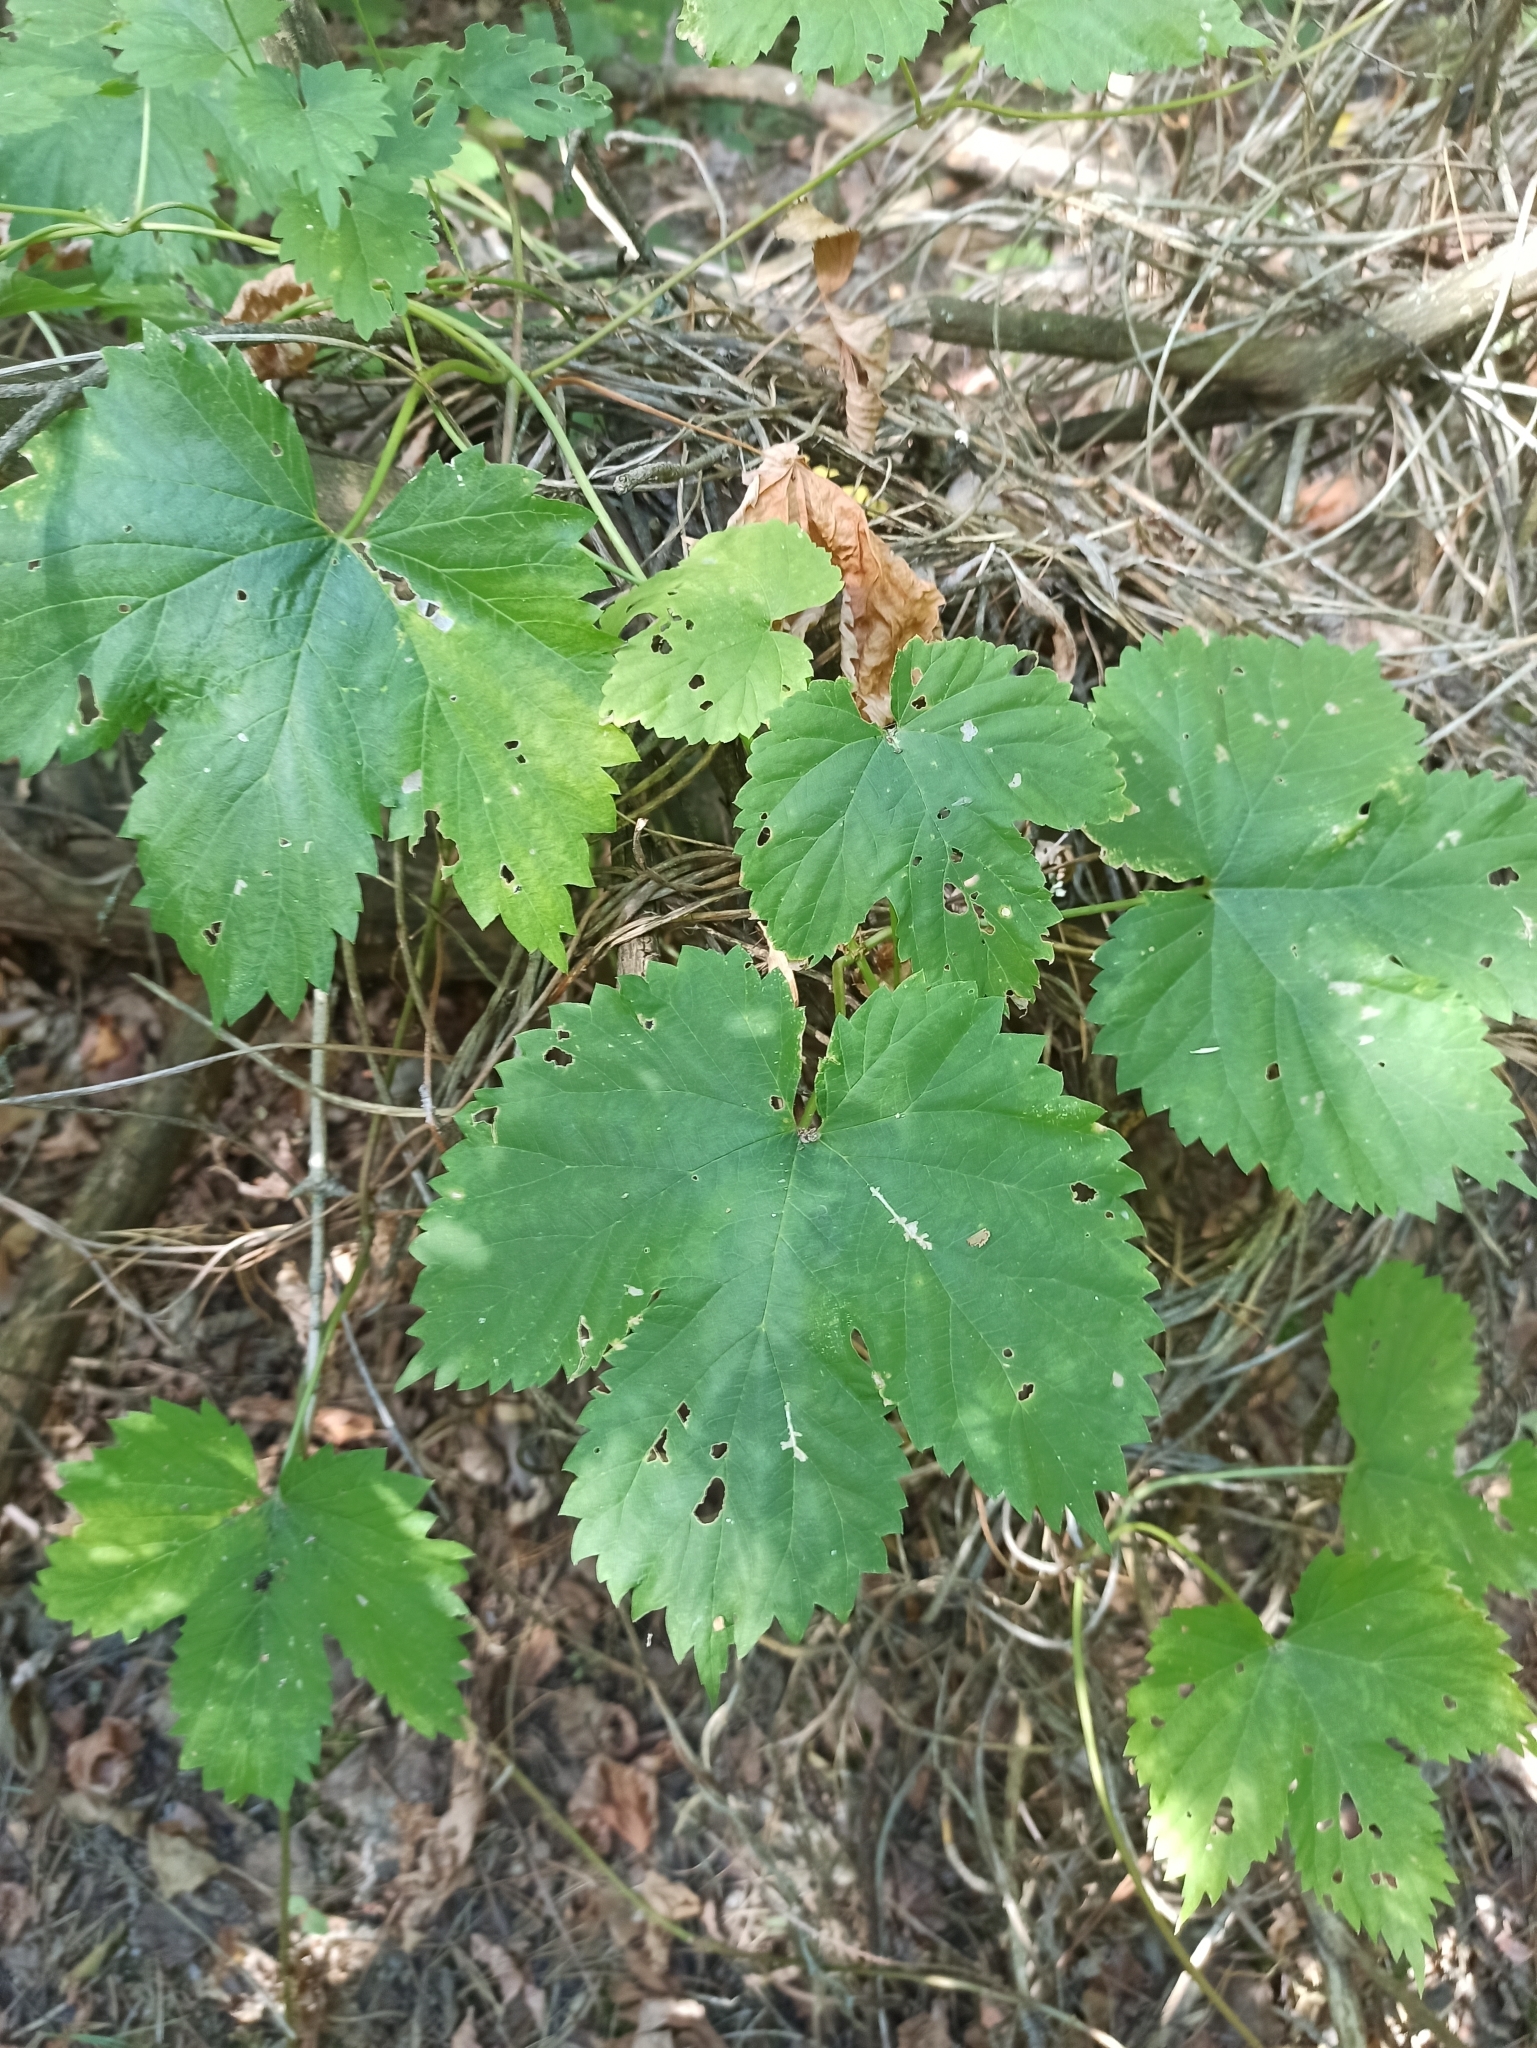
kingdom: Plantae
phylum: Tracheophyta
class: Magnoliopsida
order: Rosales
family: Cannabaceae
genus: Humulus
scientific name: Humulus lupulus
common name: Hop
